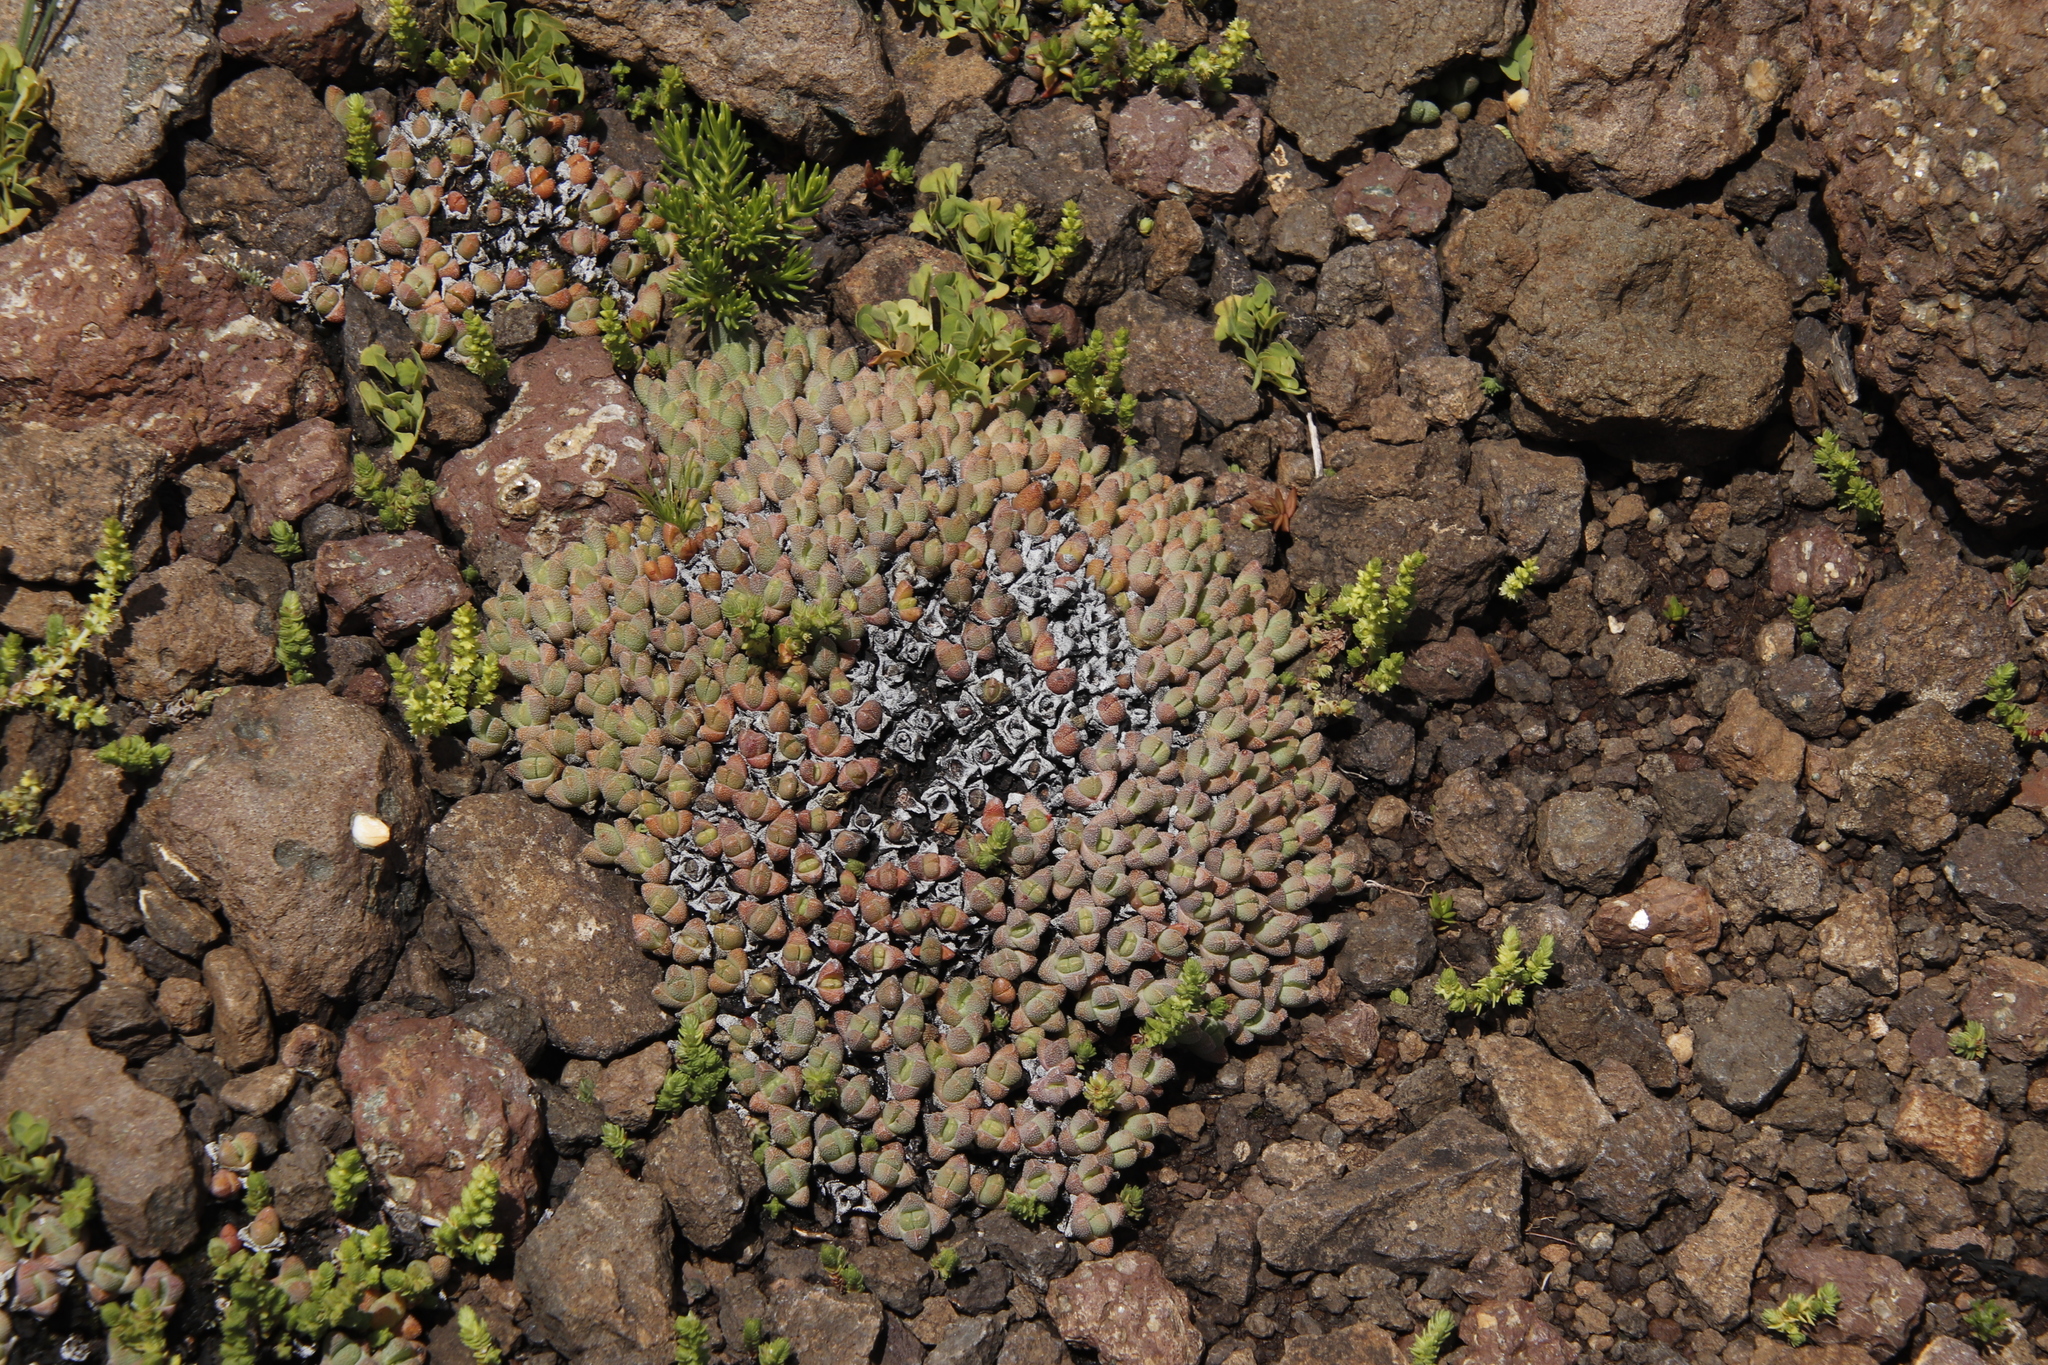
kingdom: Plantae
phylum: Tracheophyta
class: Magnoliopsida
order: Caryophyllales
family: Aizoaceae
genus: Stomatium
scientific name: Stomatium gerstneri
